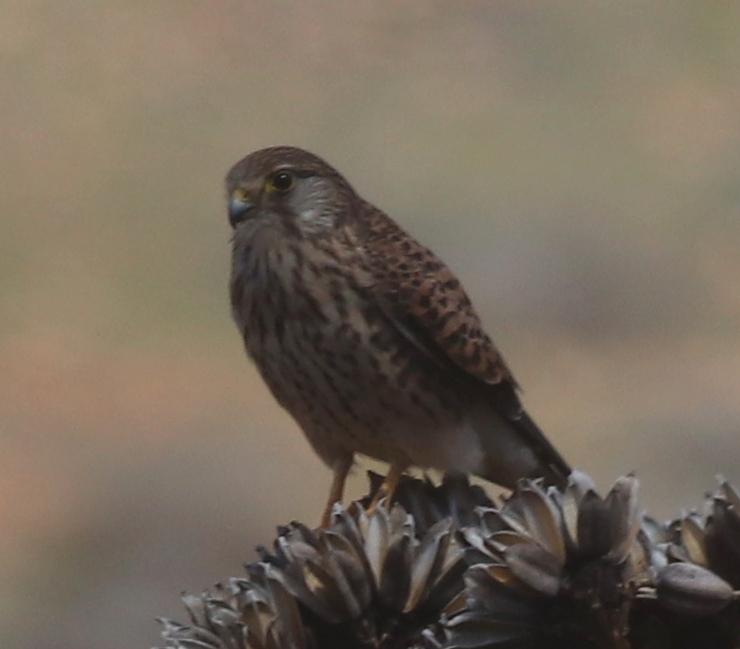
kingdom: Animalia
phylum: Chordata
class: Aves
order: Falconiformes
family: Falconidae
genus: Falco
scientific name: Falco tinnunculus
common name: Common kestrel
